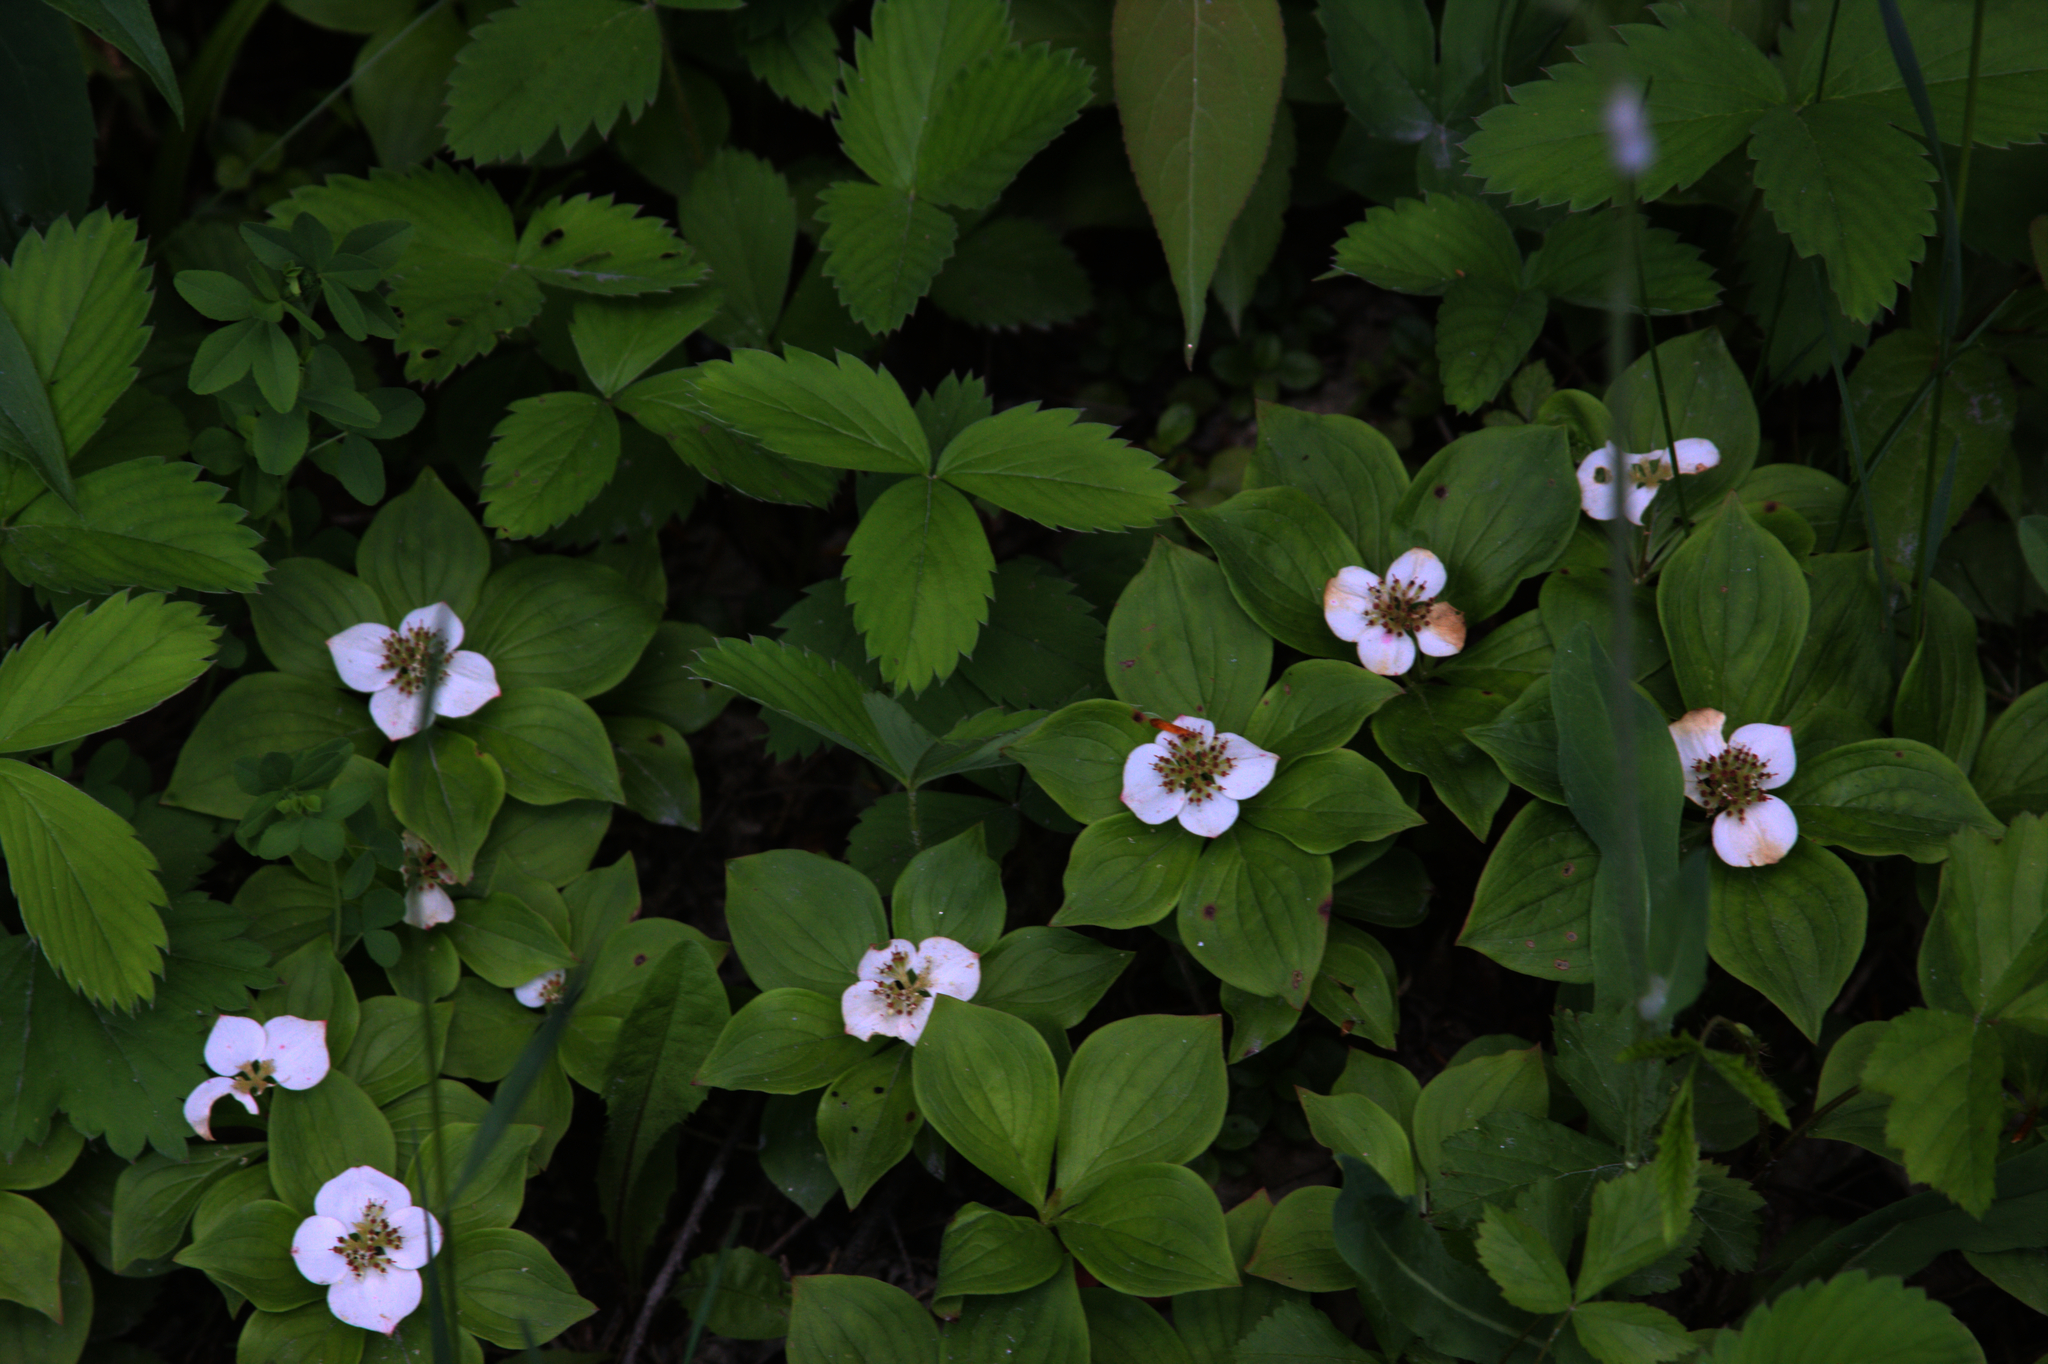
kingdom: Plantae
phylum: Tracheophyta
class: Magnoliopsida
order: Cornales
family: Cornaceae
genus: Cornus
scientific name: Cornus canadensis
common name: Creeping dogwood
